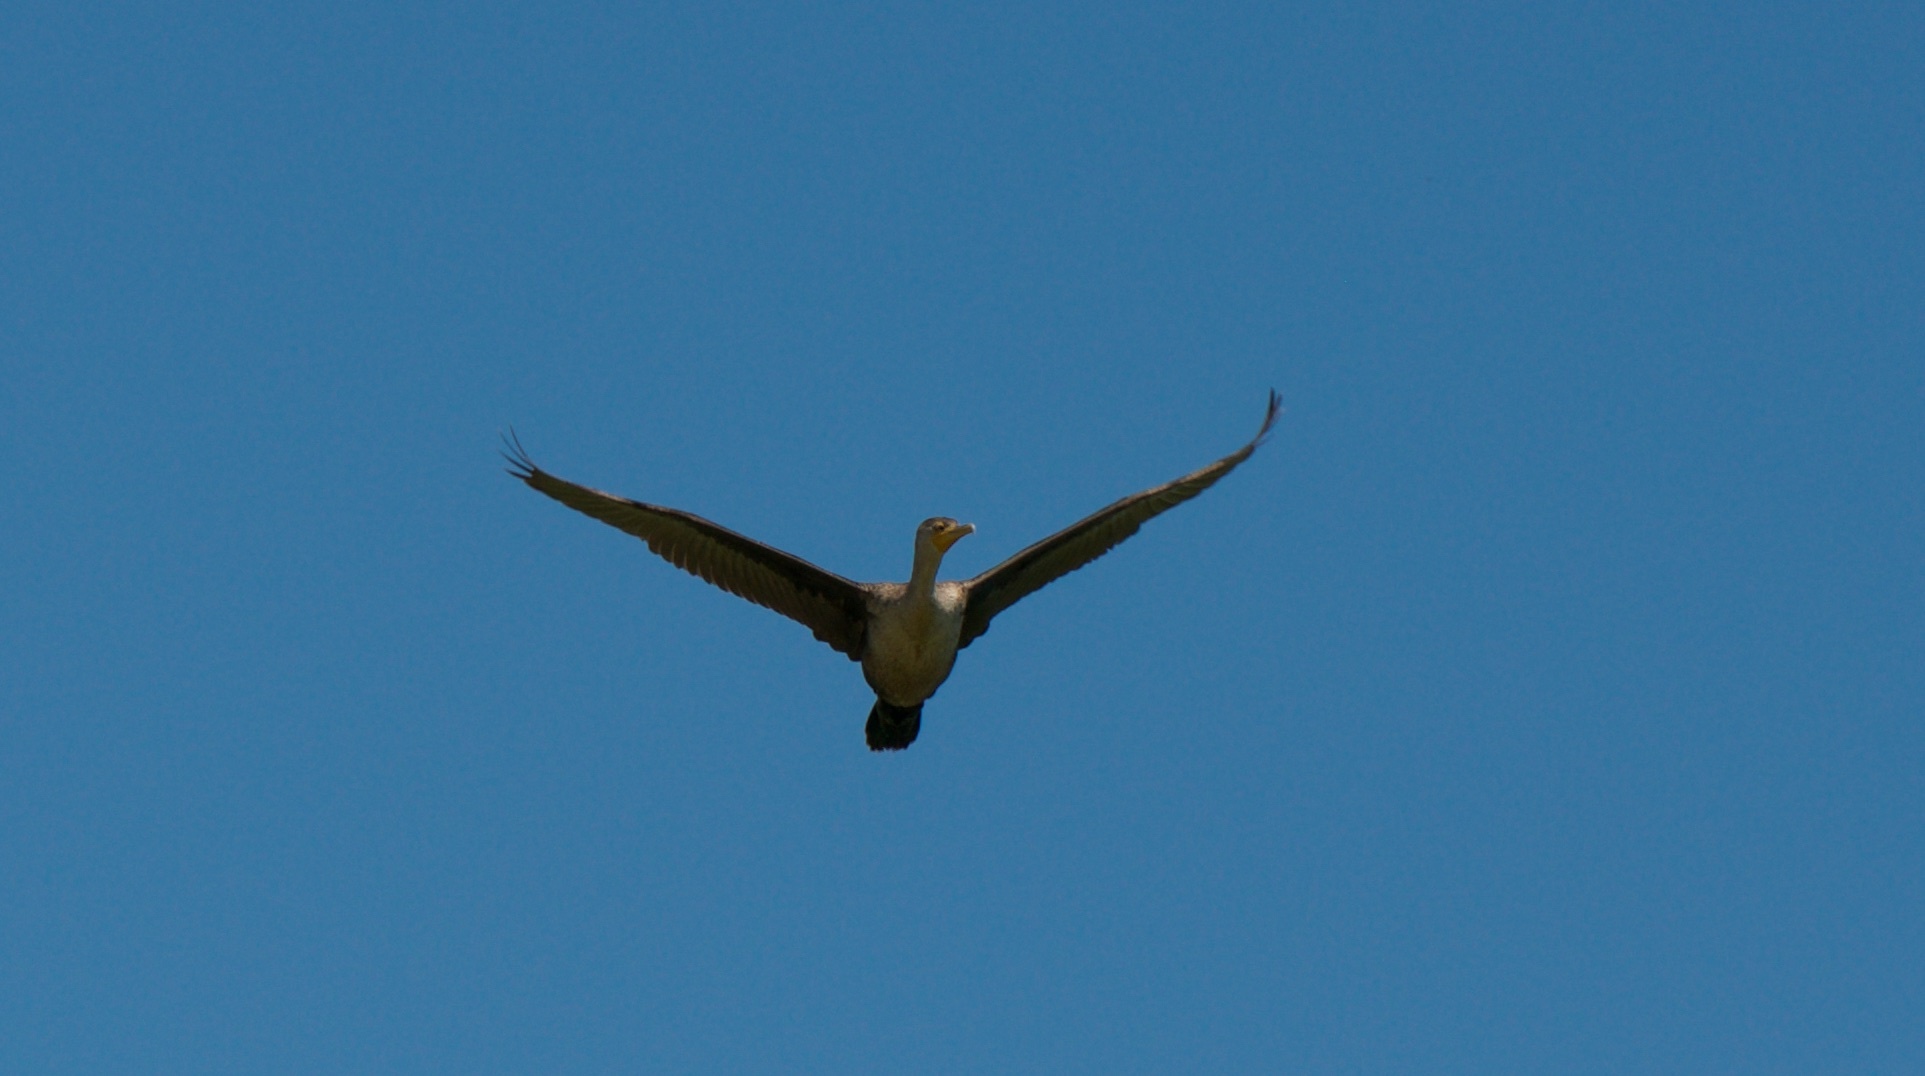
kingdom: Animalia
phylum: Chordata
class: Aves
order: Suliformes
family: Phalacrocoracidae
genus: Phalacrocorax
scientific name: Phalacrocorax auritus
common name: Double-crested cormorant
